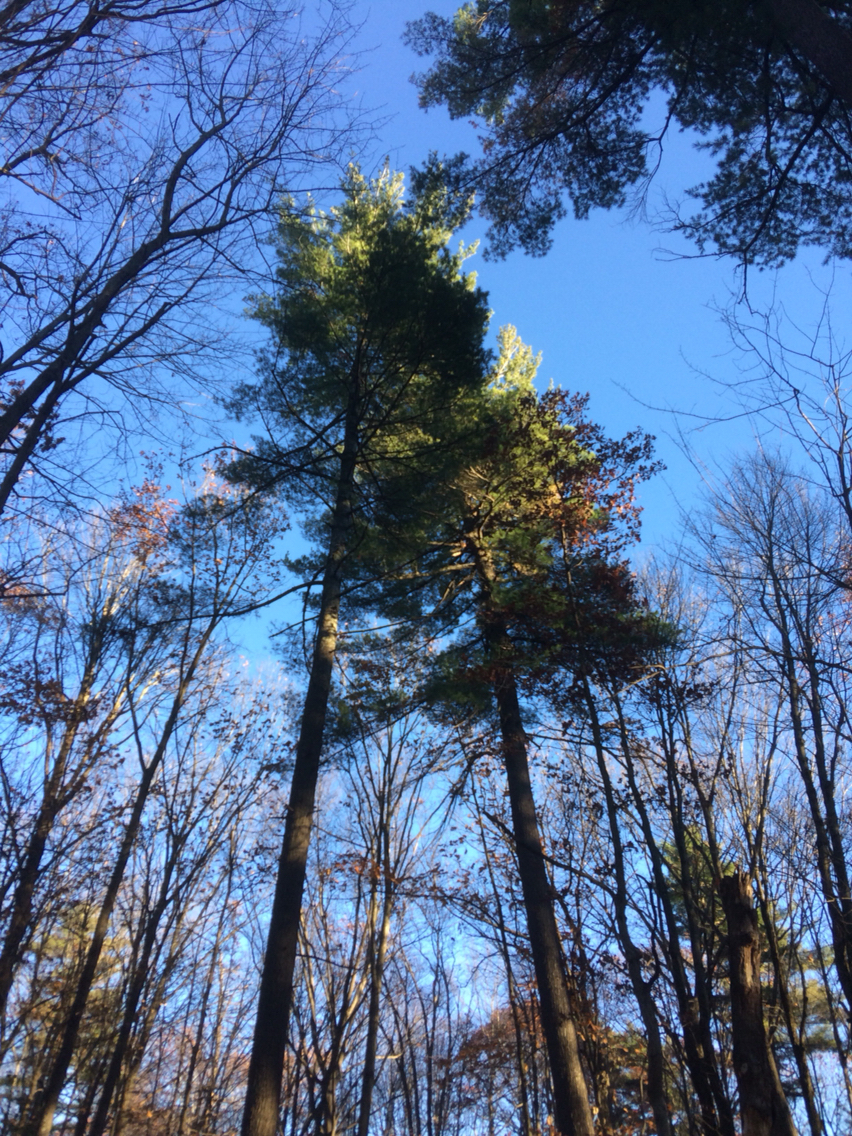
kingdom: Plantae
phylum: Tracheophyta
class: Pinopsida
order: Pinales
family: Pinaceae
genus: Pinus
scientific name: Pinus strobus
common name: Weymouth pine
